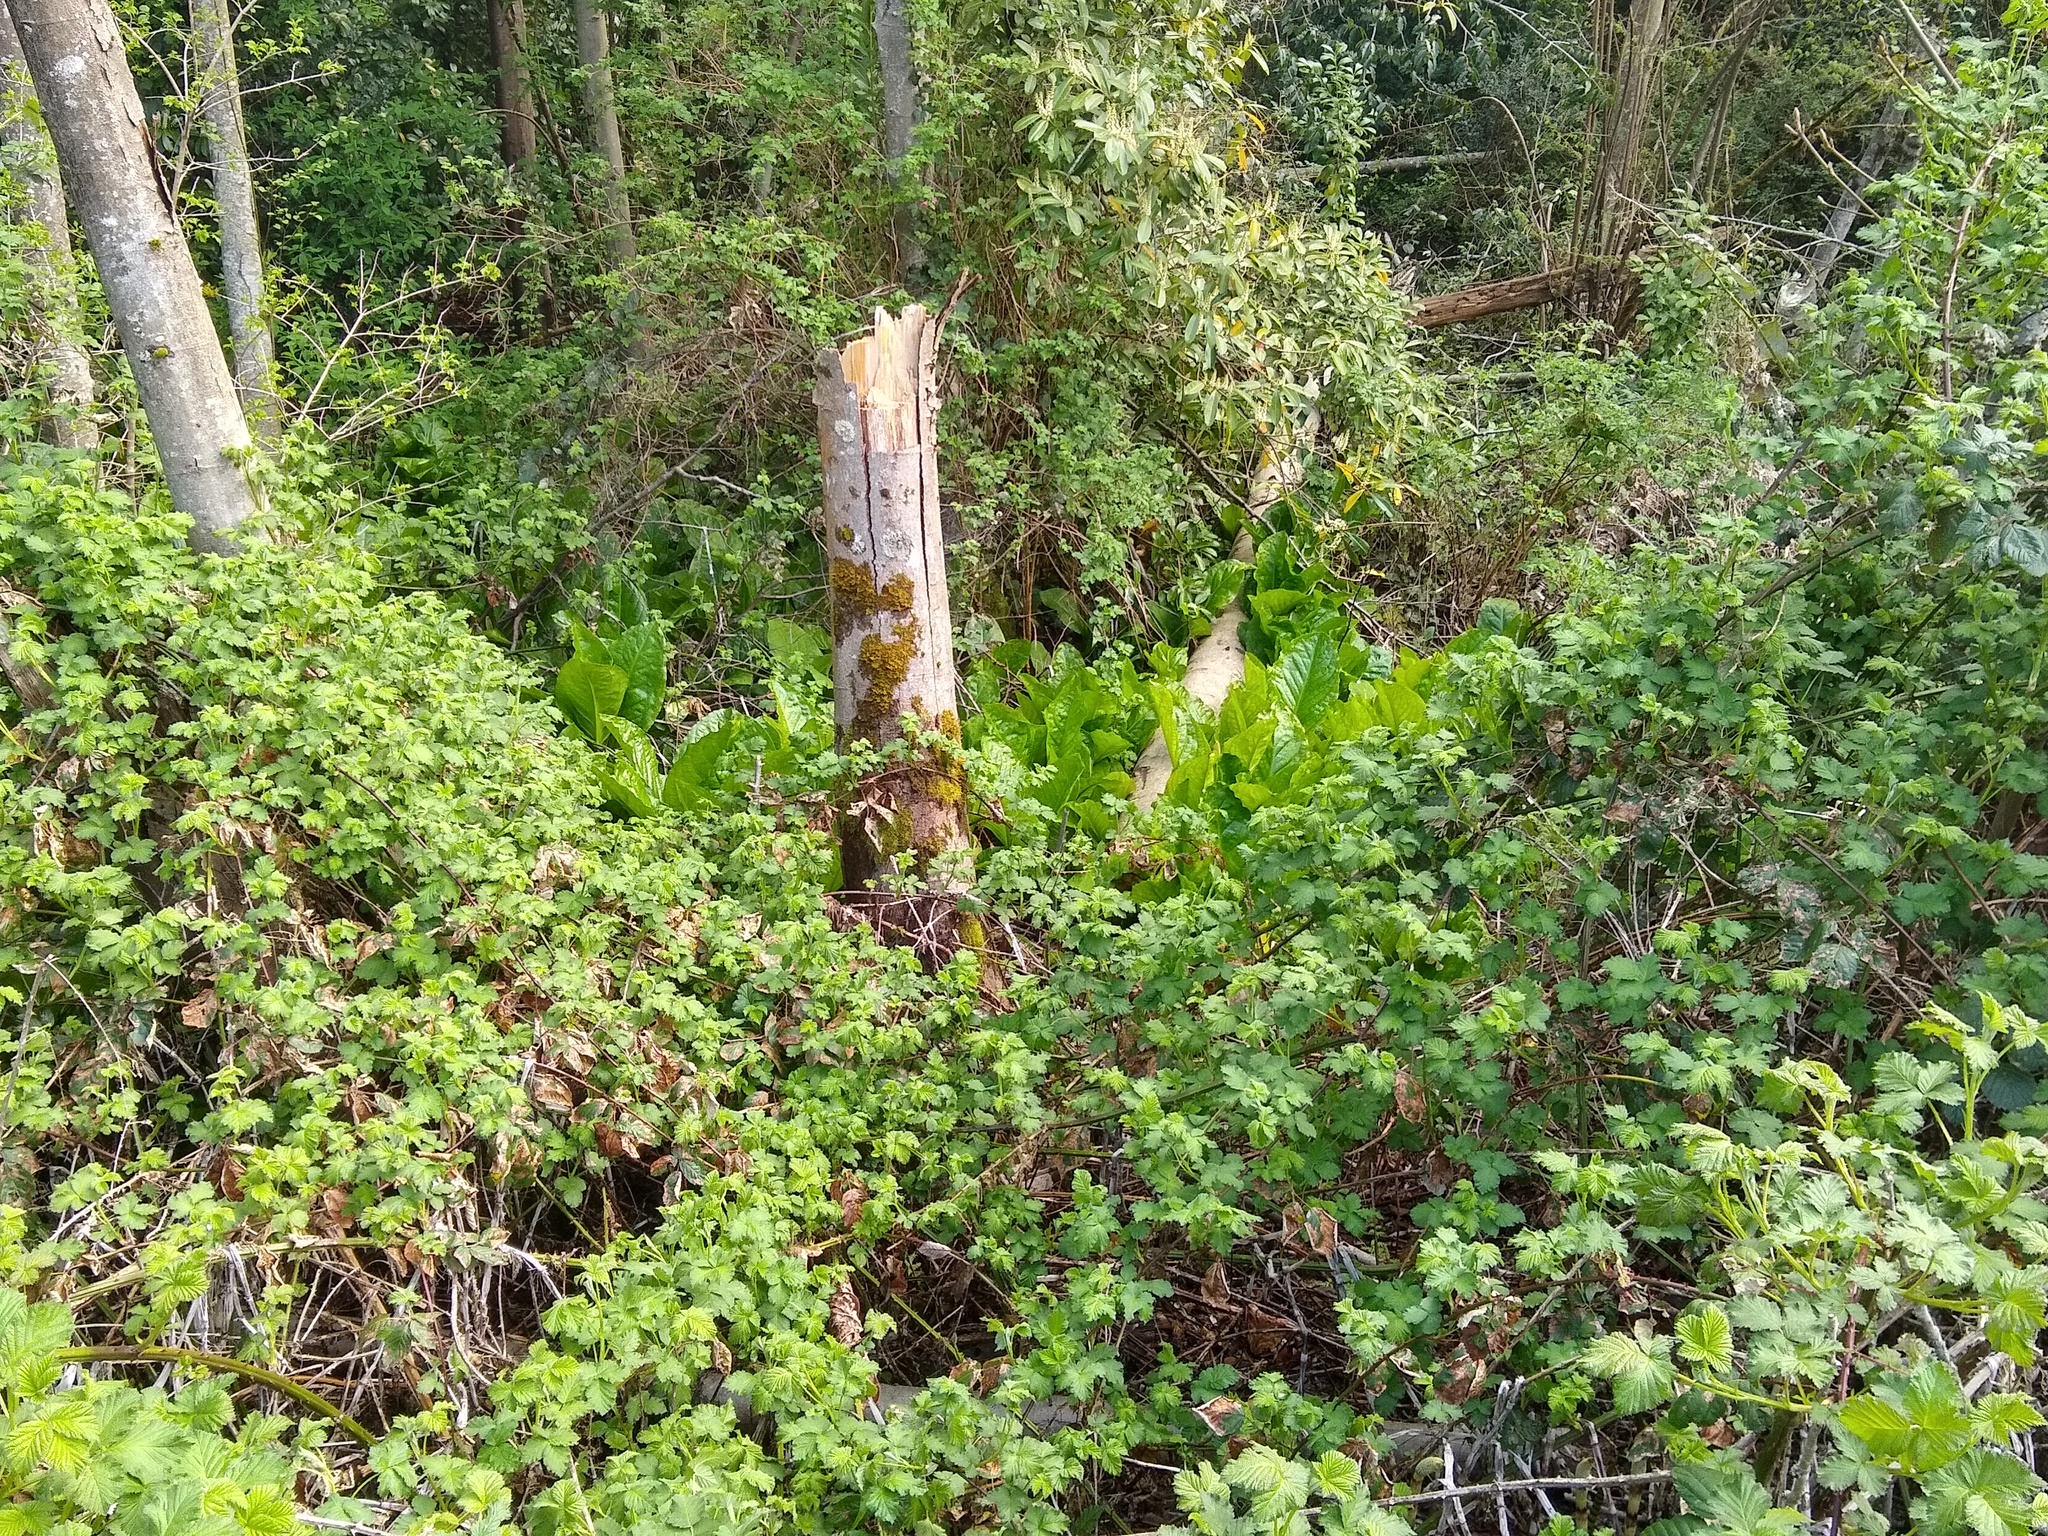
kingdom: Plantae
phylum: Tracheophyta
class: Liliopsida
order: Alismatales
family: Araceae
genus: Lysichiton
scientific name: Lysichiton americanus
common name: American skunk cabbage
